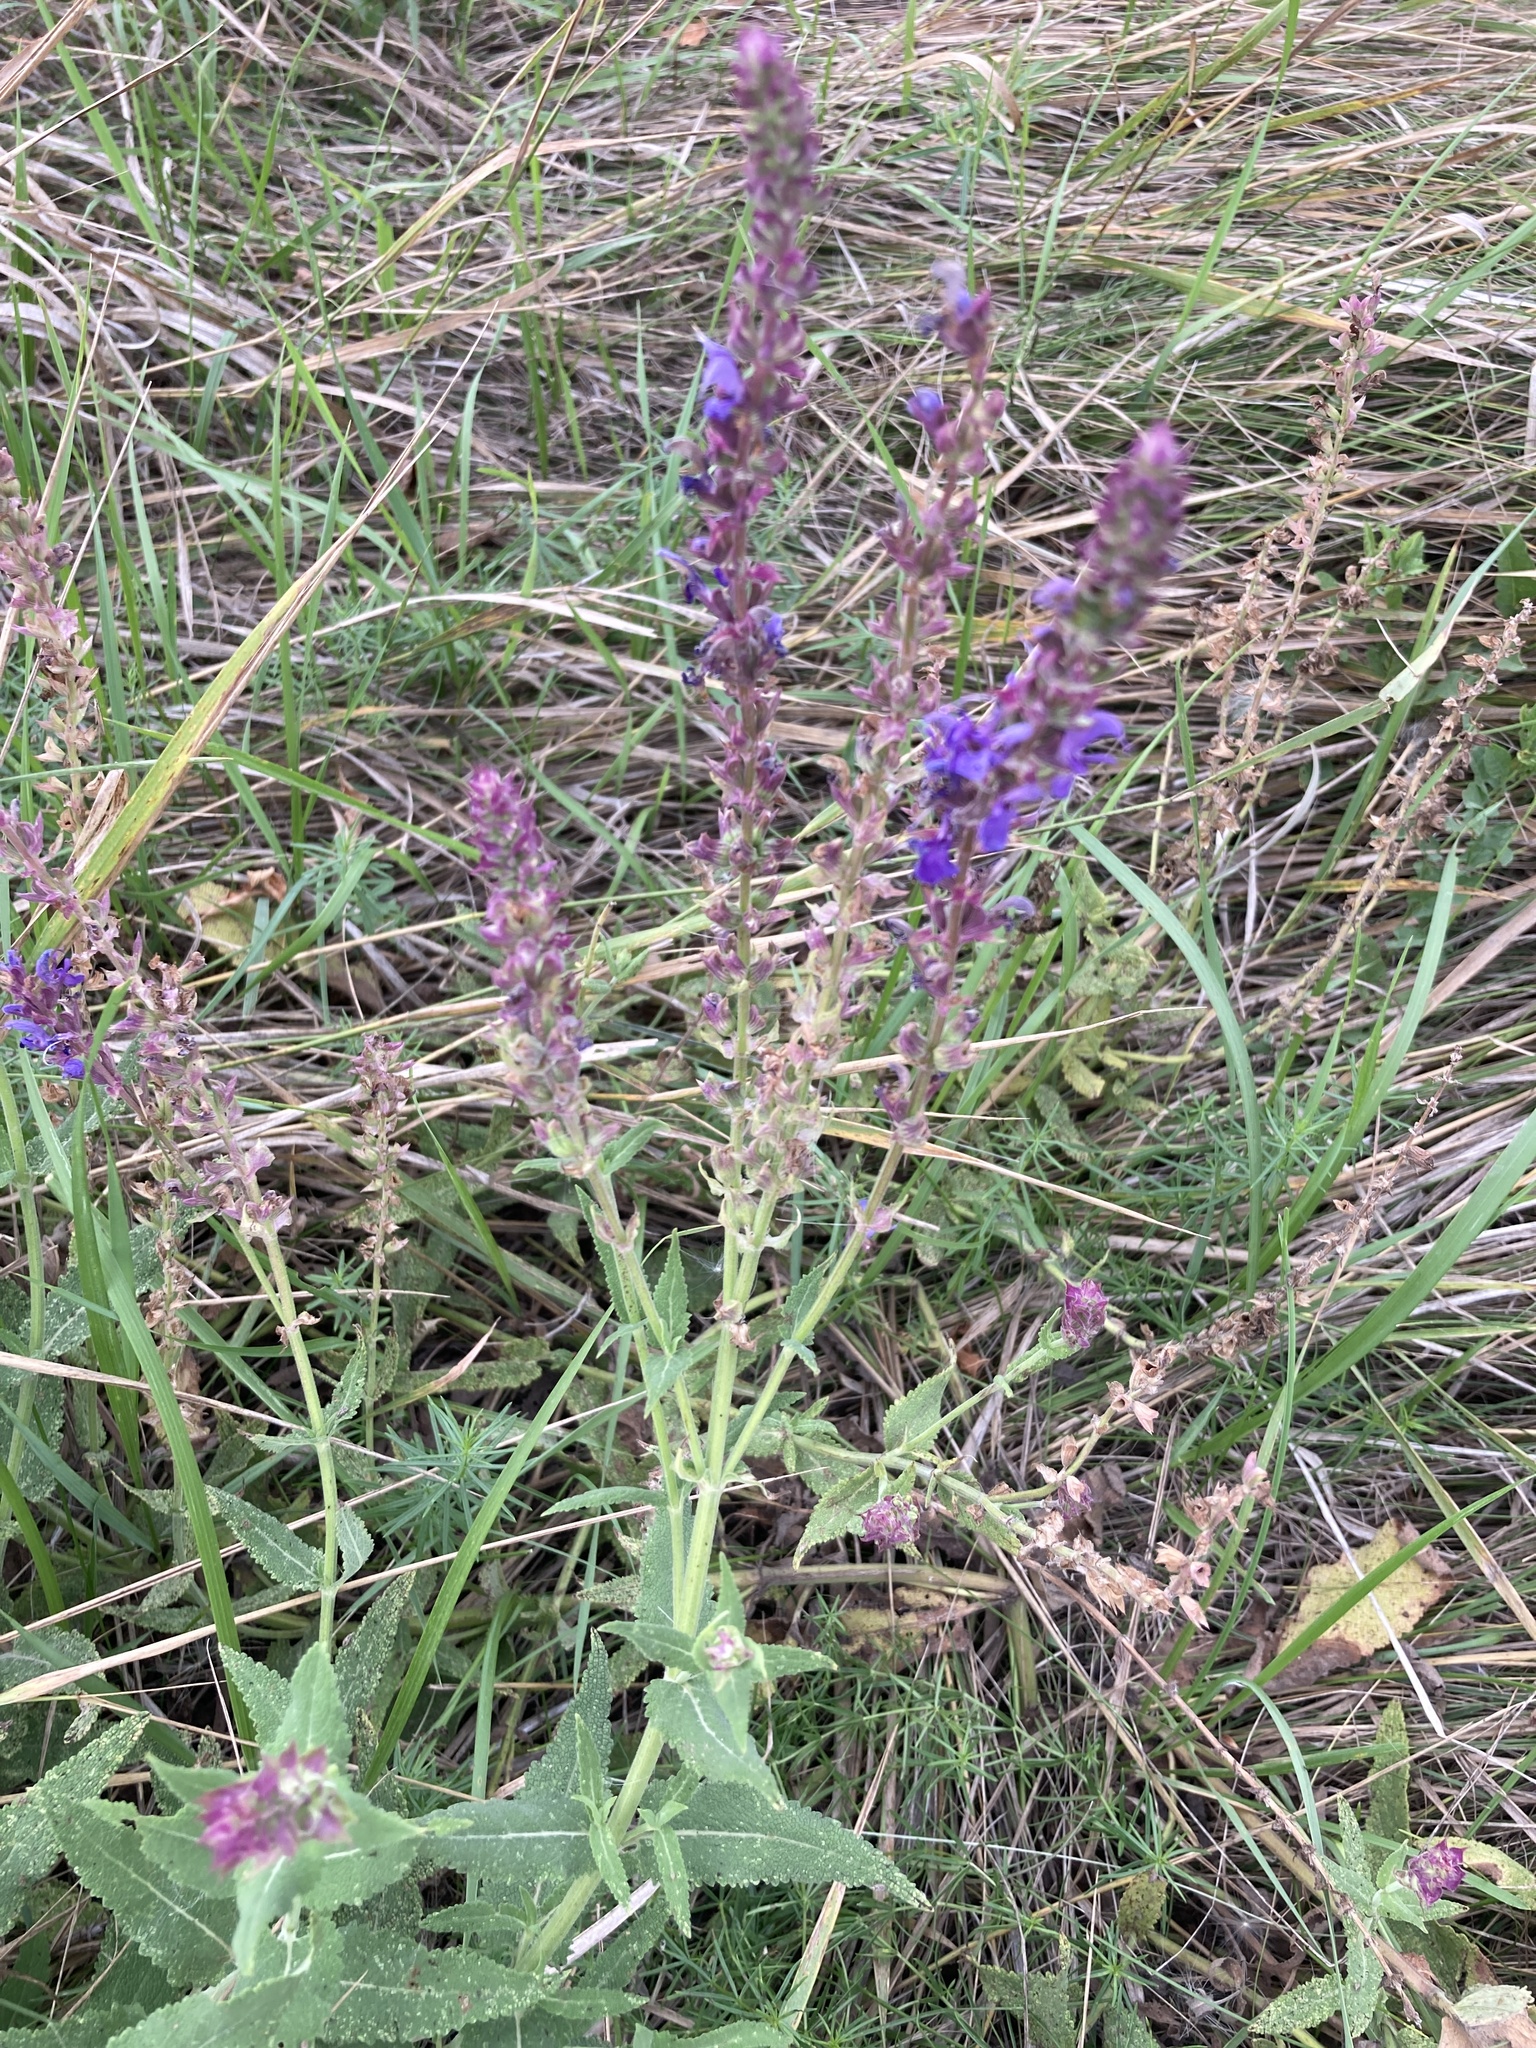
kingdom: Plantae
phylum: Tracheophyta
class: Magnoliopsida
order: Lamiales
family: Lamiaceae
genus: Salvia
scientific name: Salvia nemorosa
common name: Balkan clary
